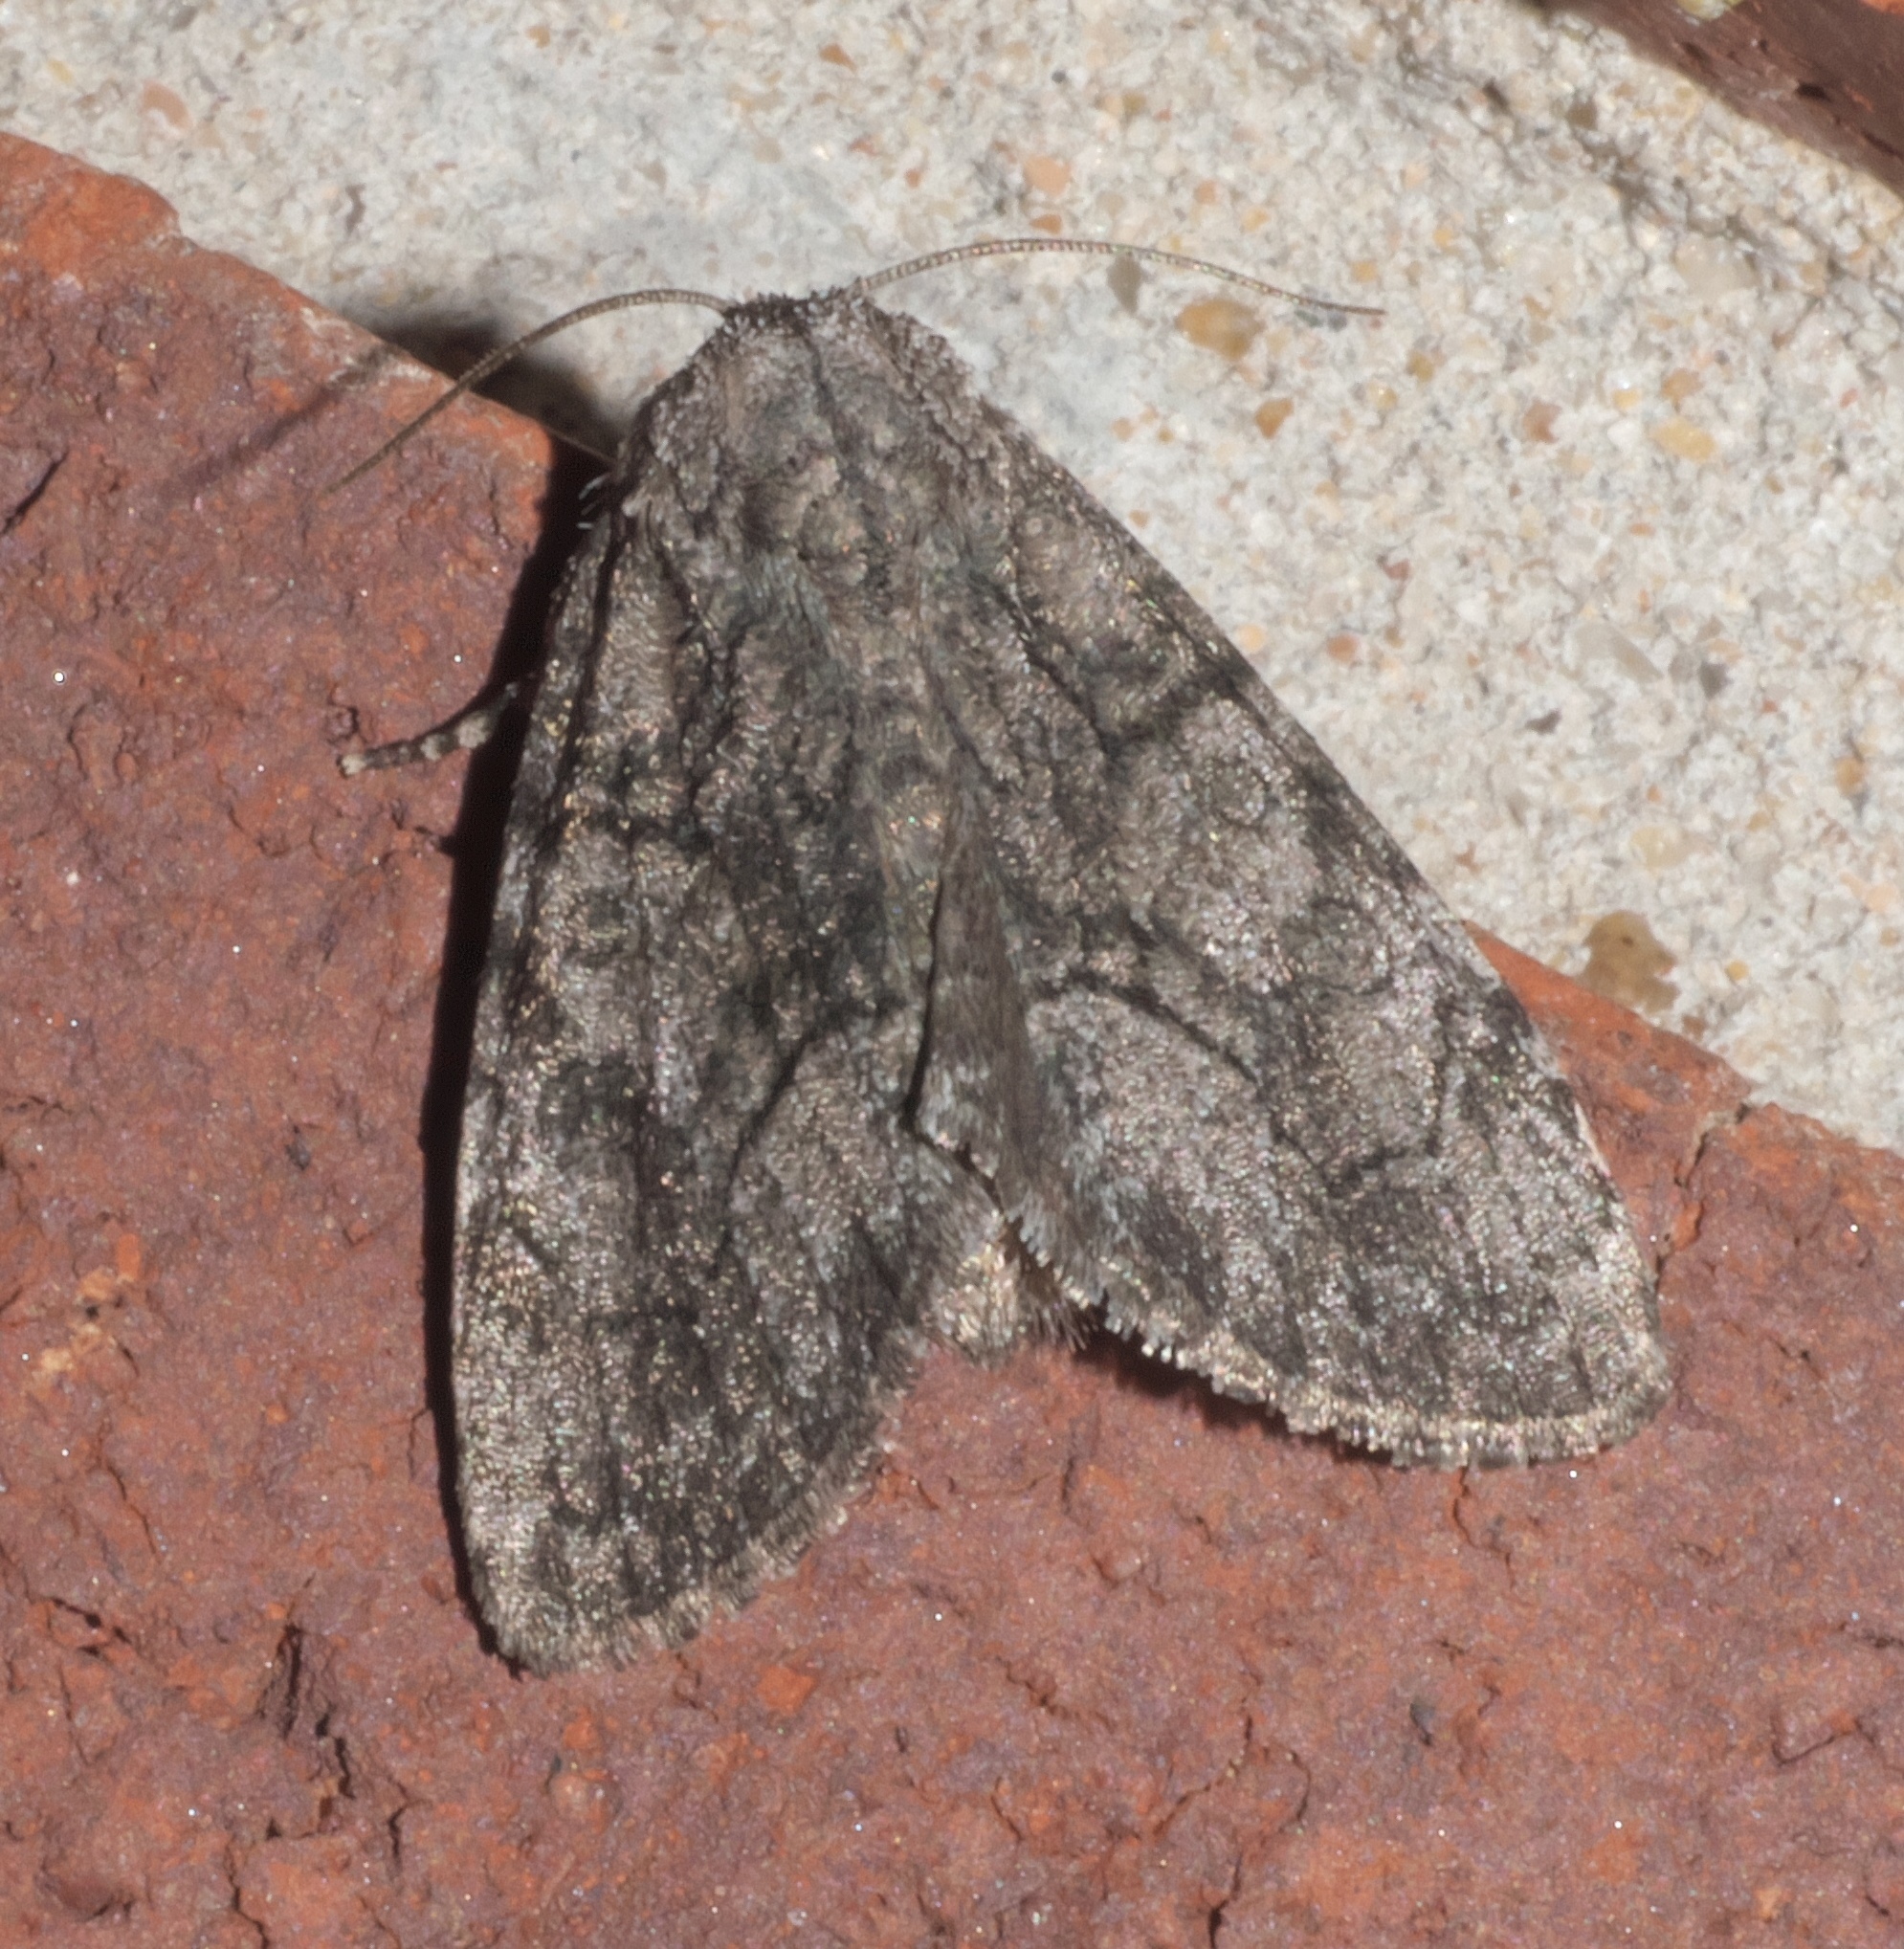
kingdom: Animalia
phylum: Arthropoda
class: Insecta
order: Lepidoptera
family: Noctuidae
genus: Raphia
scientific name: Raphia frater
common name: Brother
